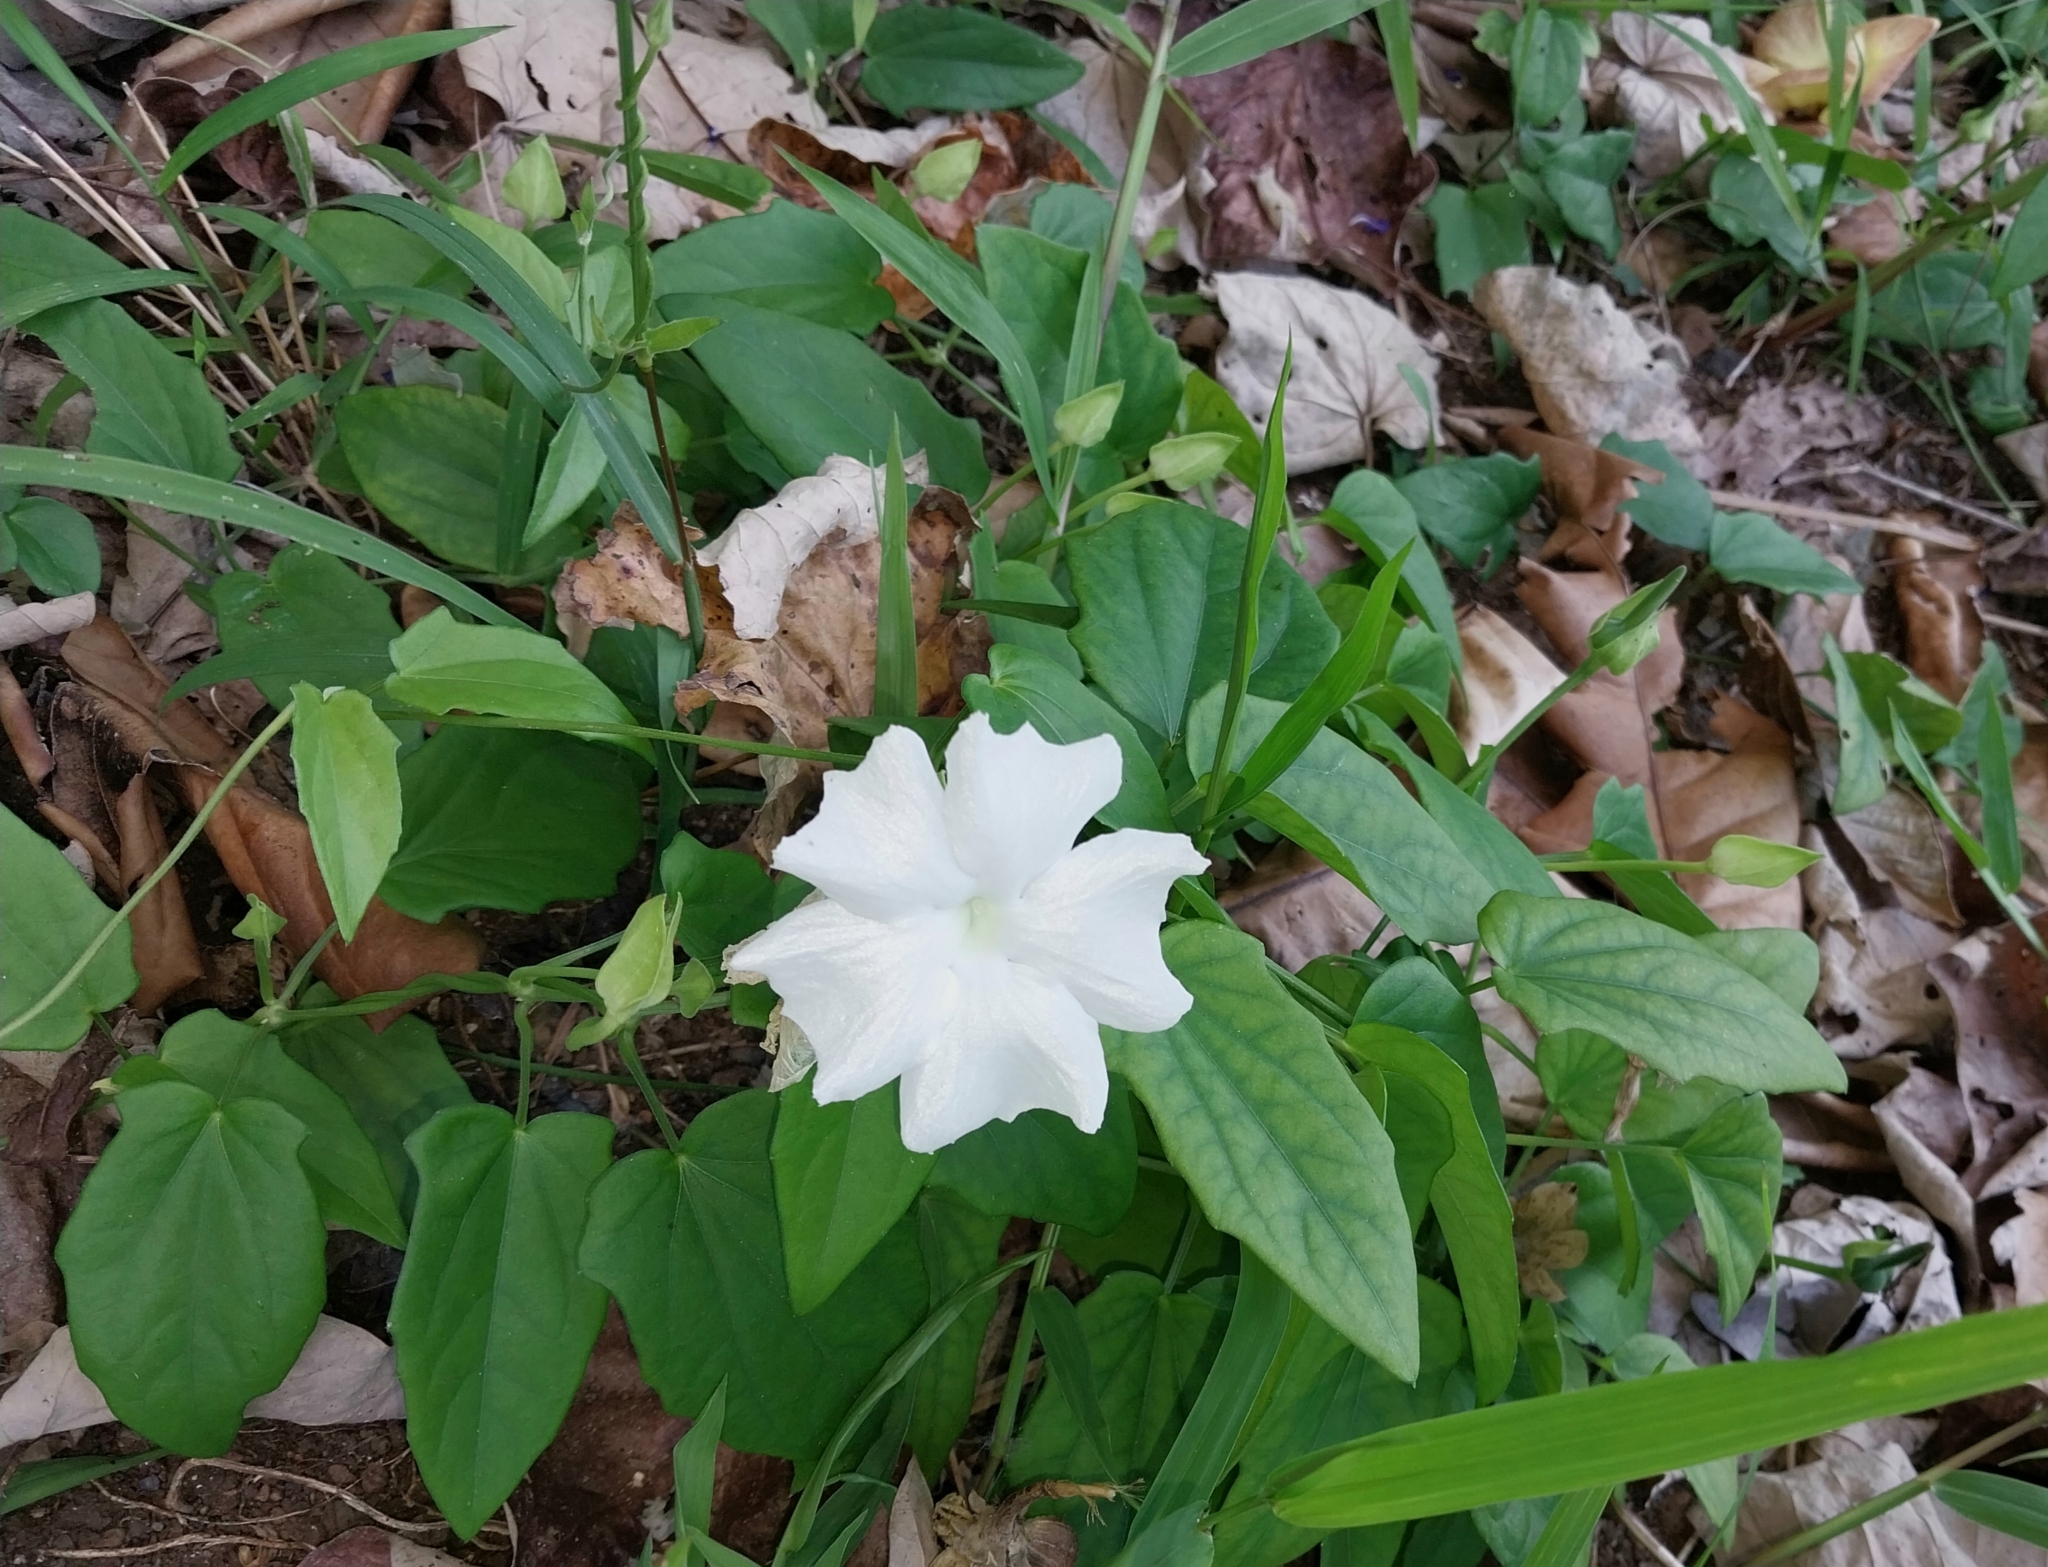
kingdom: Plantae
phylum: Tracheophyta
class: Magnoliopsida
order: Lamiales
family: Acanthaceae
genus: Thunbergia
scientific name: Thunbergia fragrans
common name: Whitelady
